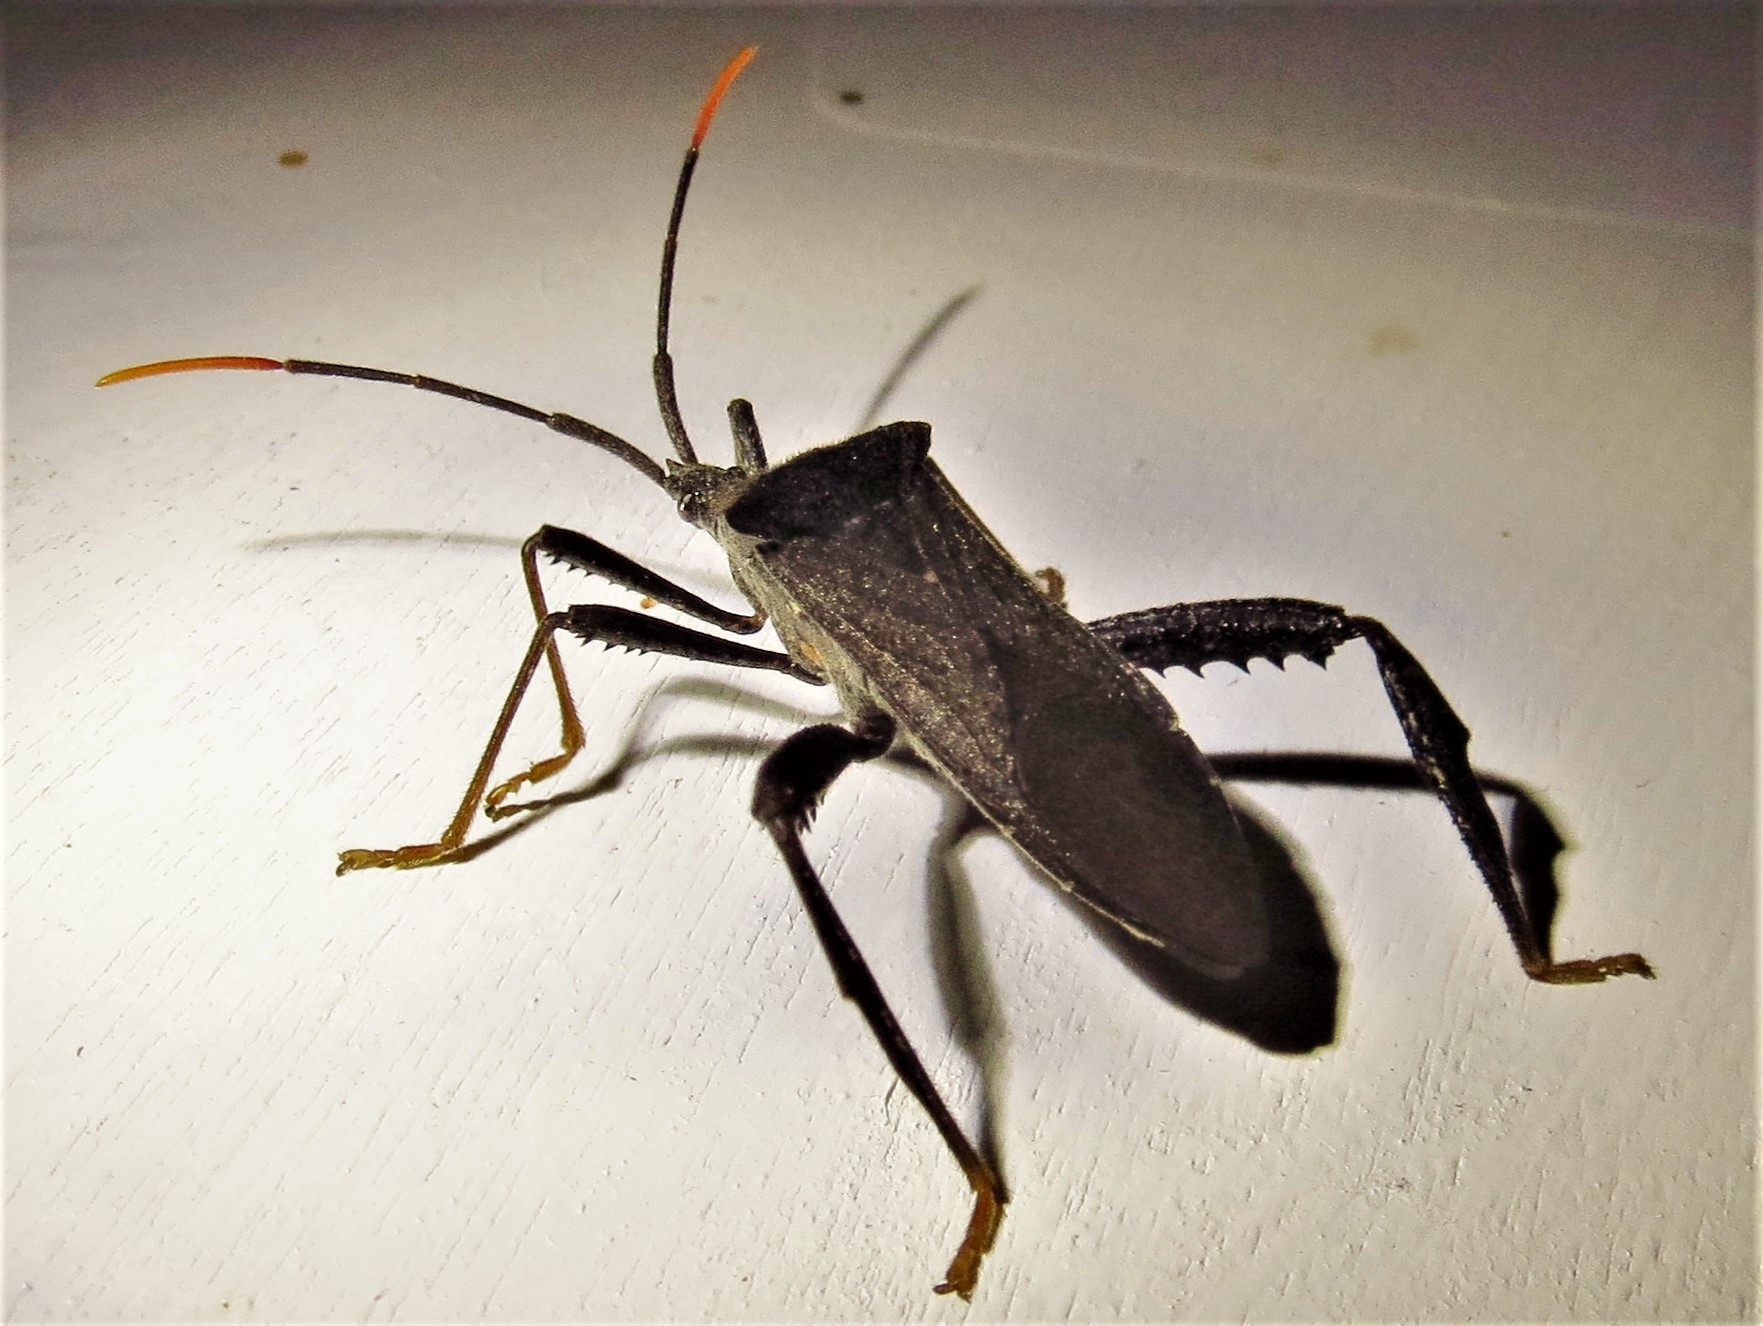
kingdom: Animalia
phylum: Arthropoda
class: Insecta
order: Hemiptera
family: Coreidae
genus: Acanthocephala
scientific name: Acanthocephala terminalis
